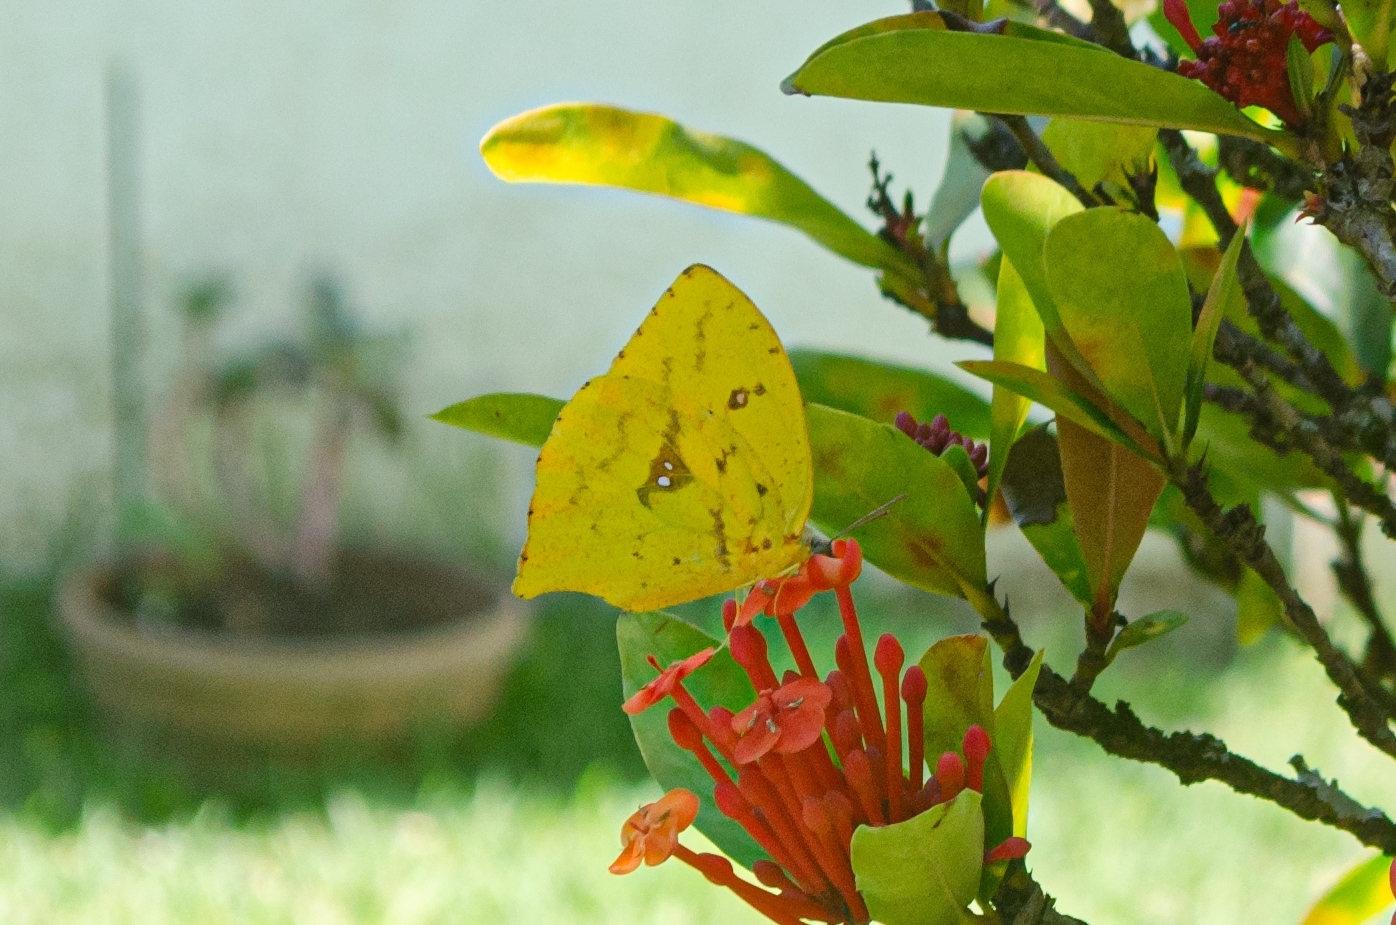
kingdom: Animalia
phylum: Arthropoda
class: Insecta
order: Lepidoptera
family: Pieridae
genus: Phoebis
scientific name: Phoebis neocypris
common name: Tailed sulphur
